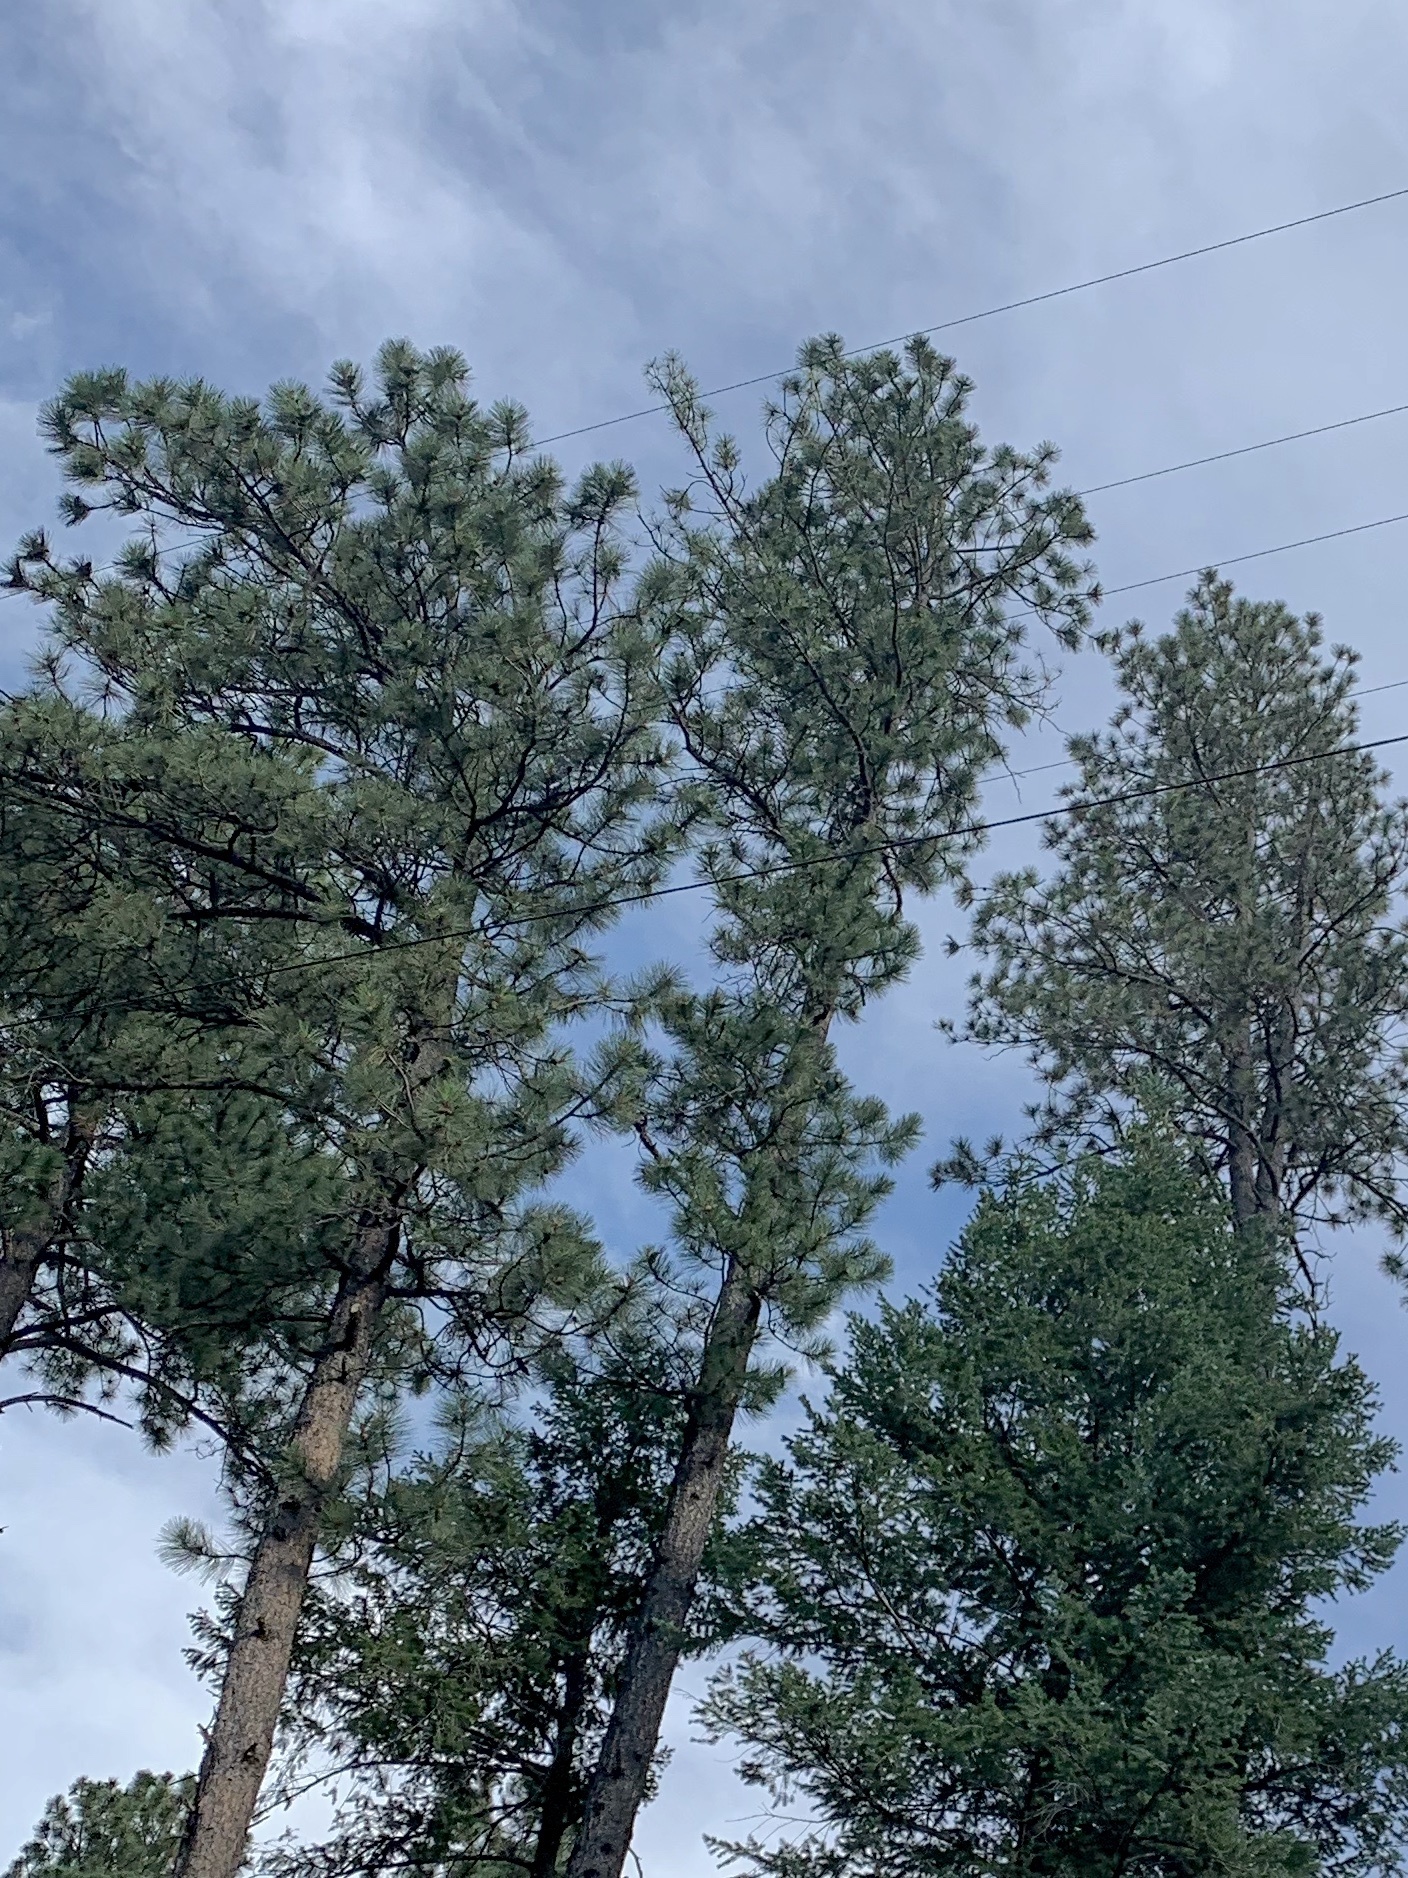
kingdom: Plantae
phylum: Tracheophyta
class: Pinopsida
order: Pinales
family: Pinaceae
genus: Pinus
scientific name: Pinus ponderosa
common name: Western yellow-pine
